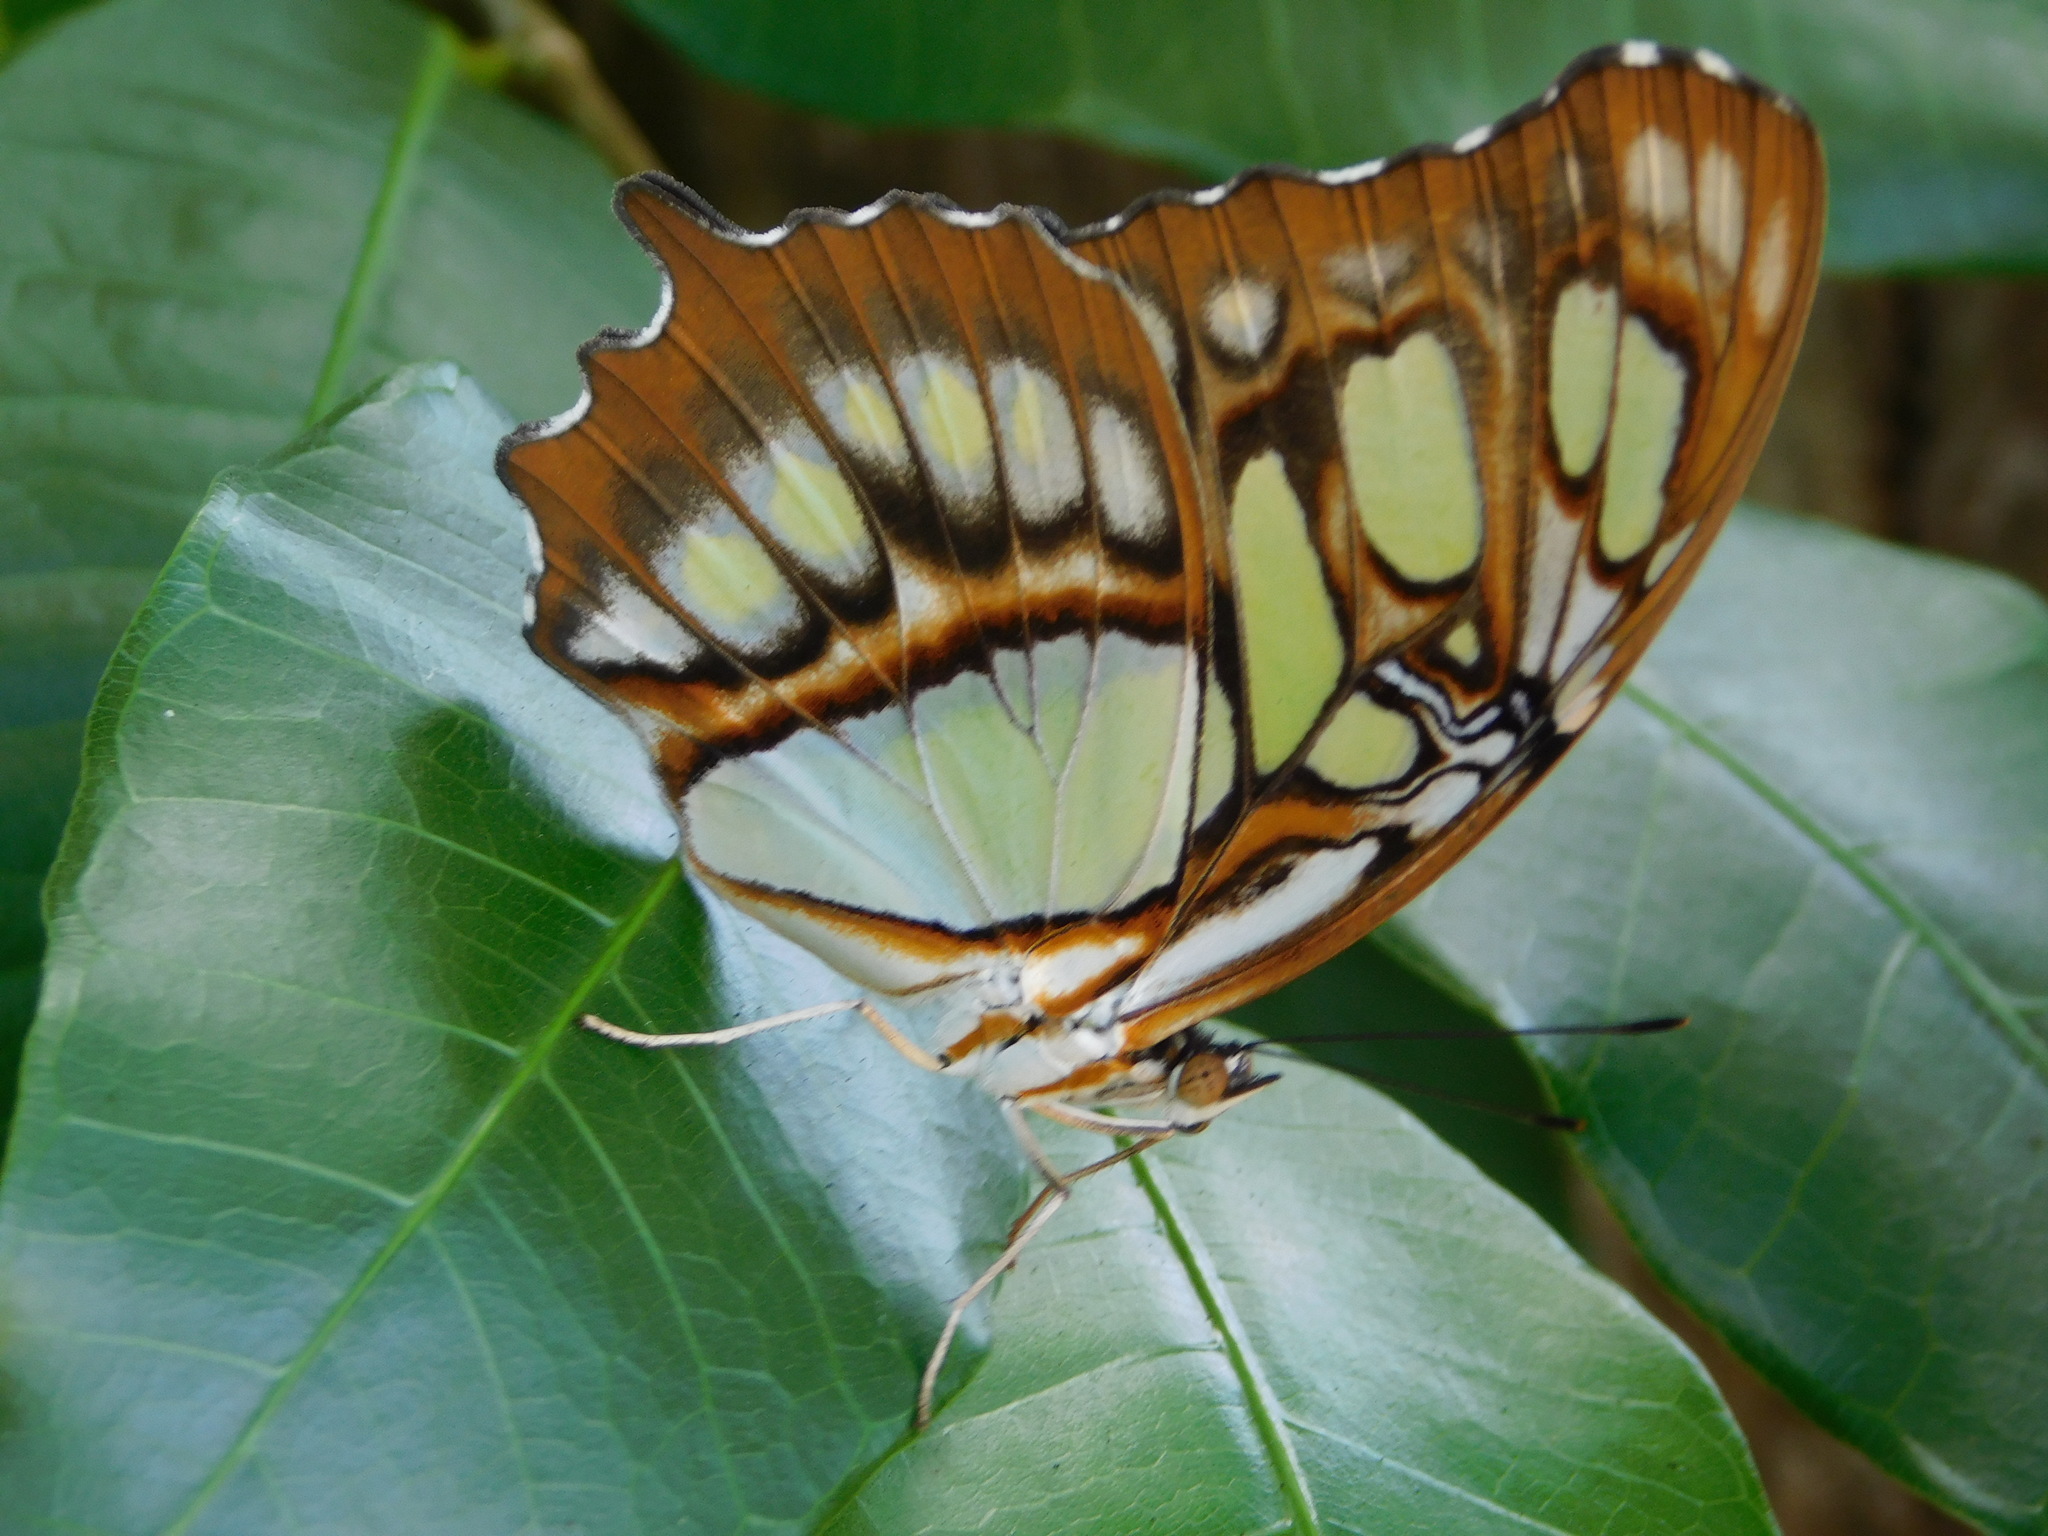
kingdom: Animalia
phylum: Arthropoda
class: Insecta
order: Lepidoptera
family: Nymphalidae
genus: Siproeta
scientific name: Siproeta stelenes
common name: Malachite
